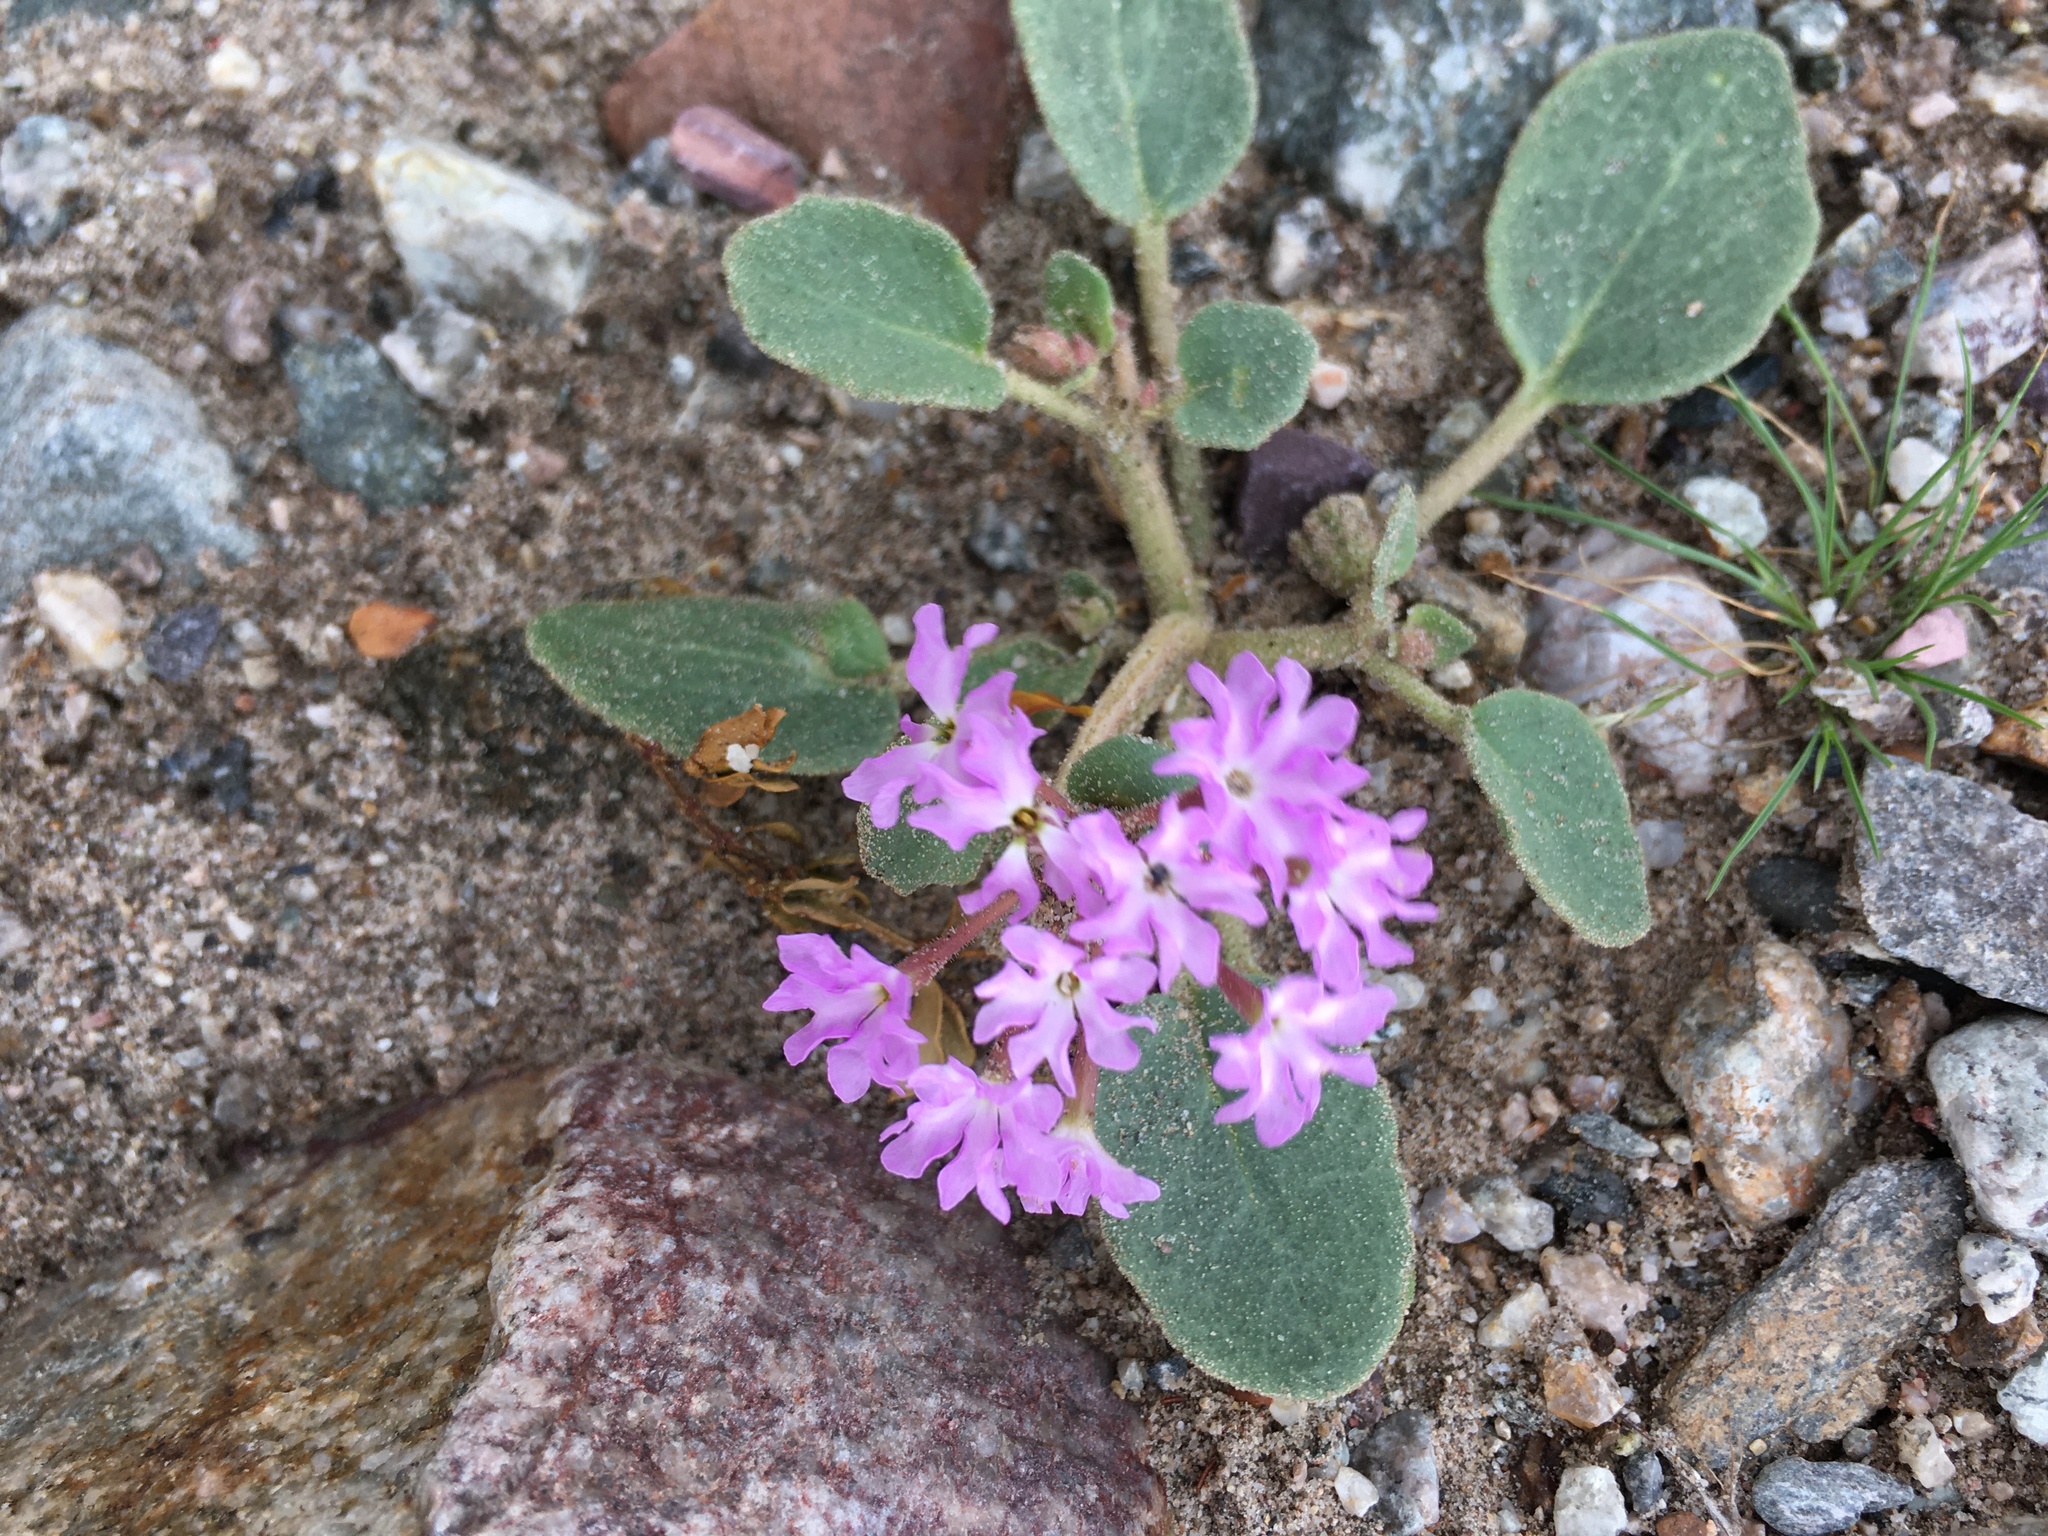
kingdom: Plantae
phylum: Tracheophyta
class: Magnoliopsida
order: Caryophyllales
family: Nyctaginaceae
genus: Abronia
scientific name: Abronia villosa
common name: Desert sand-verbena
